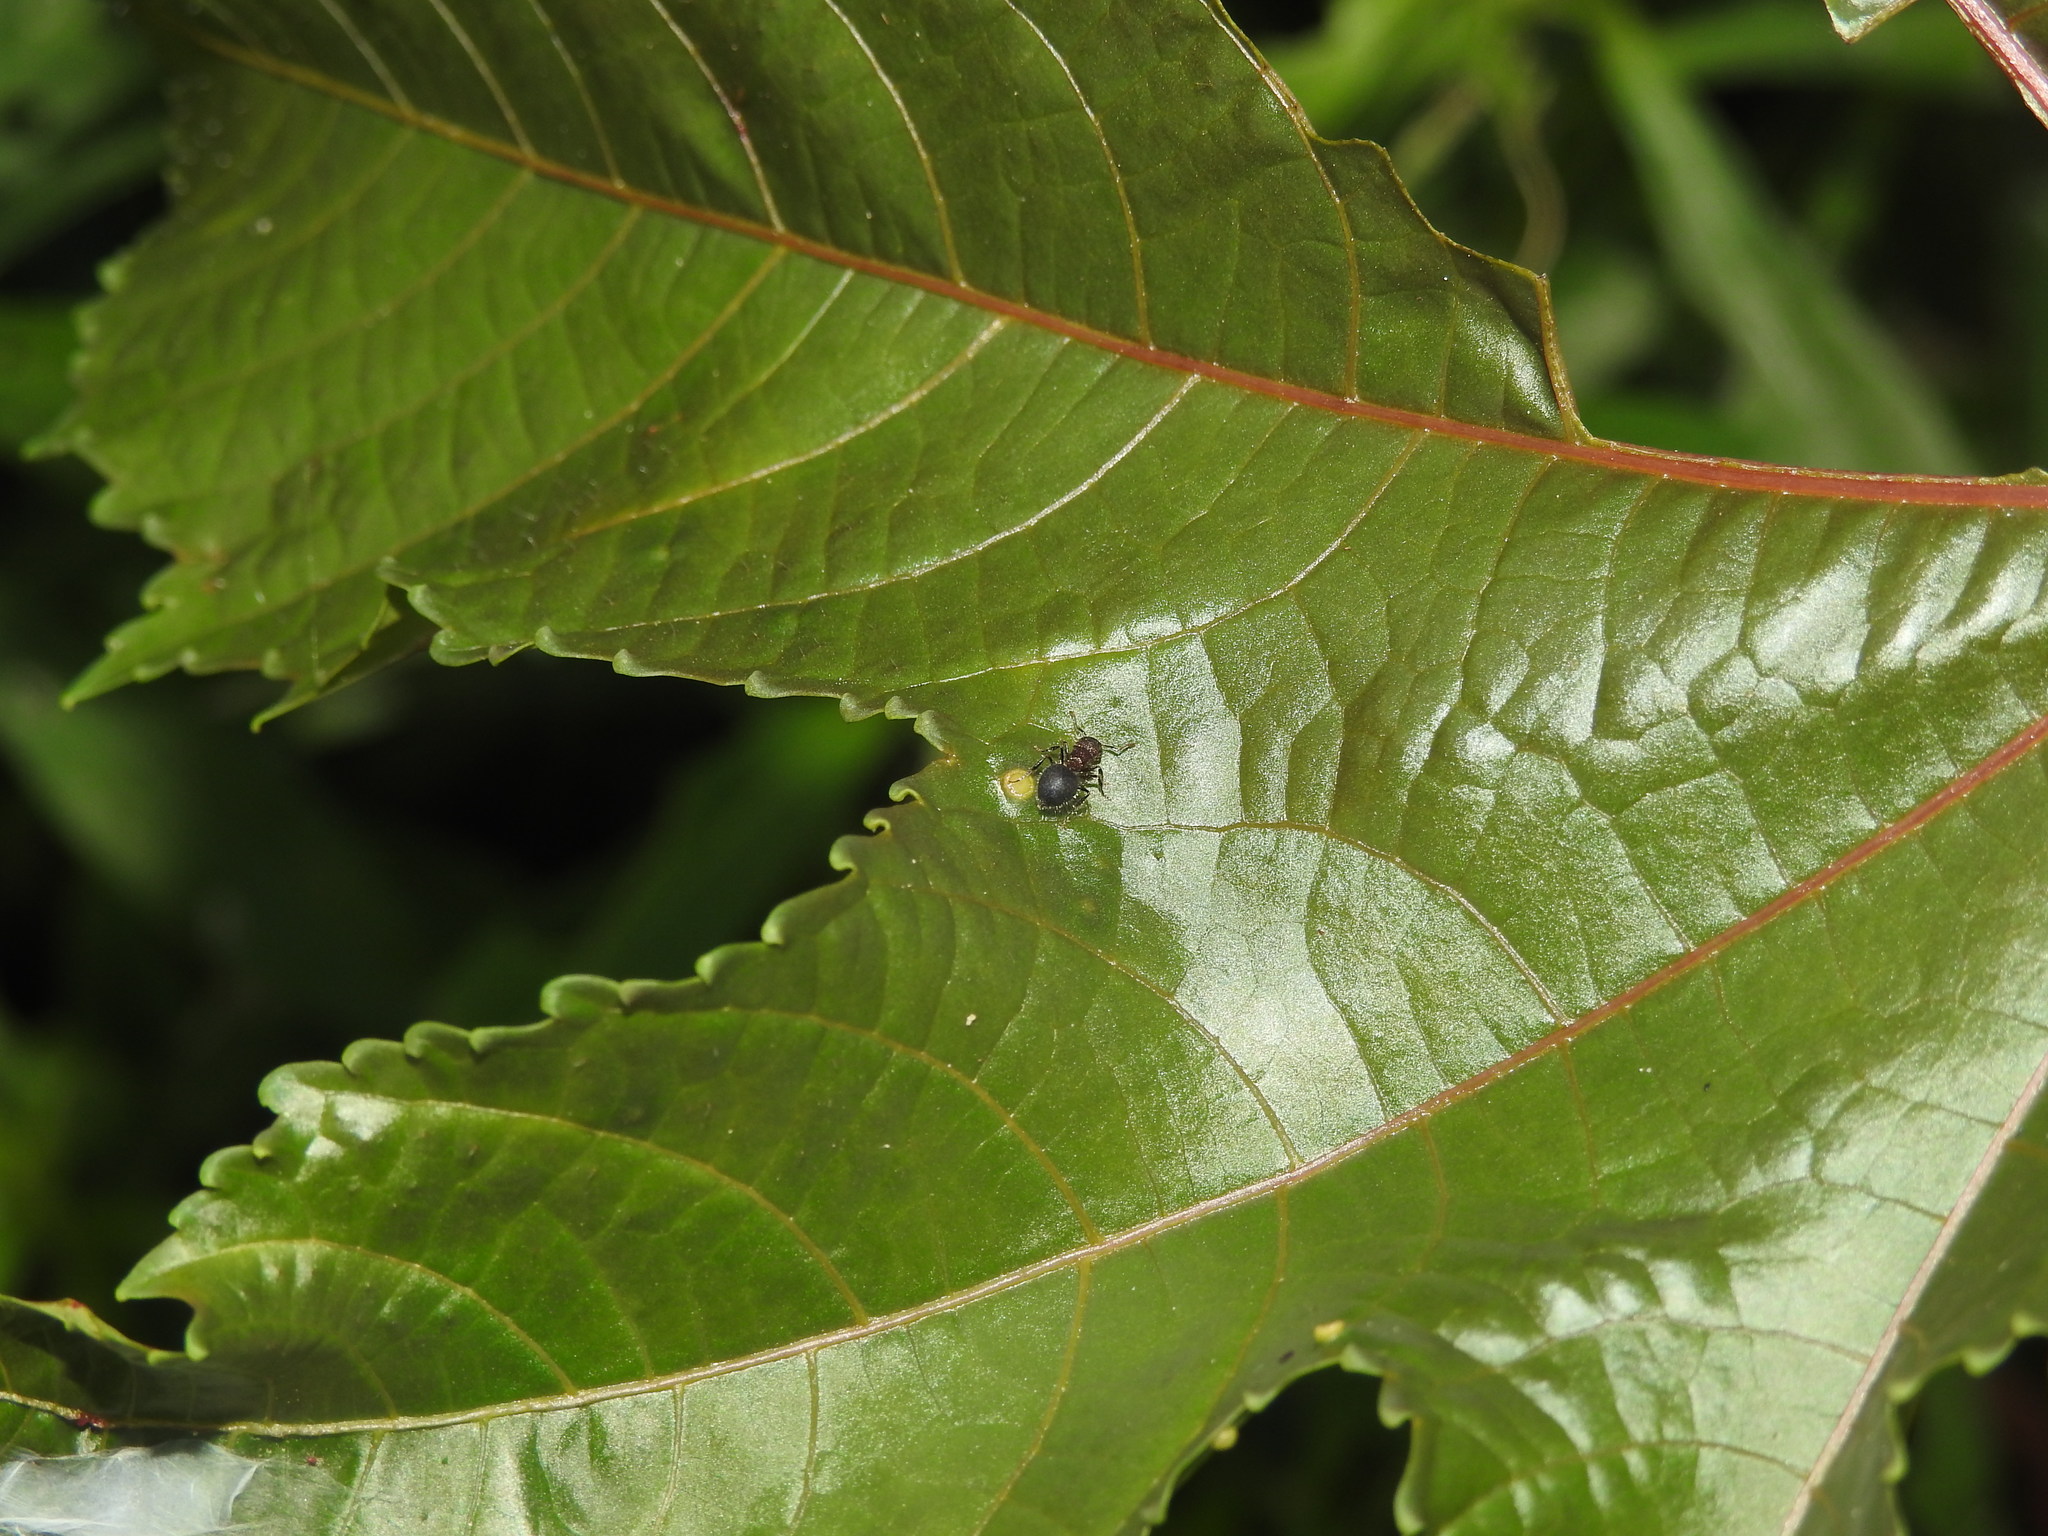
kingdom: Animalia
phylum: Arthropoda
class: Insecta
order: Hymenoptera
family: Formicidae
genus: Meranoplus
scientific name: Meranoplus bicolor
